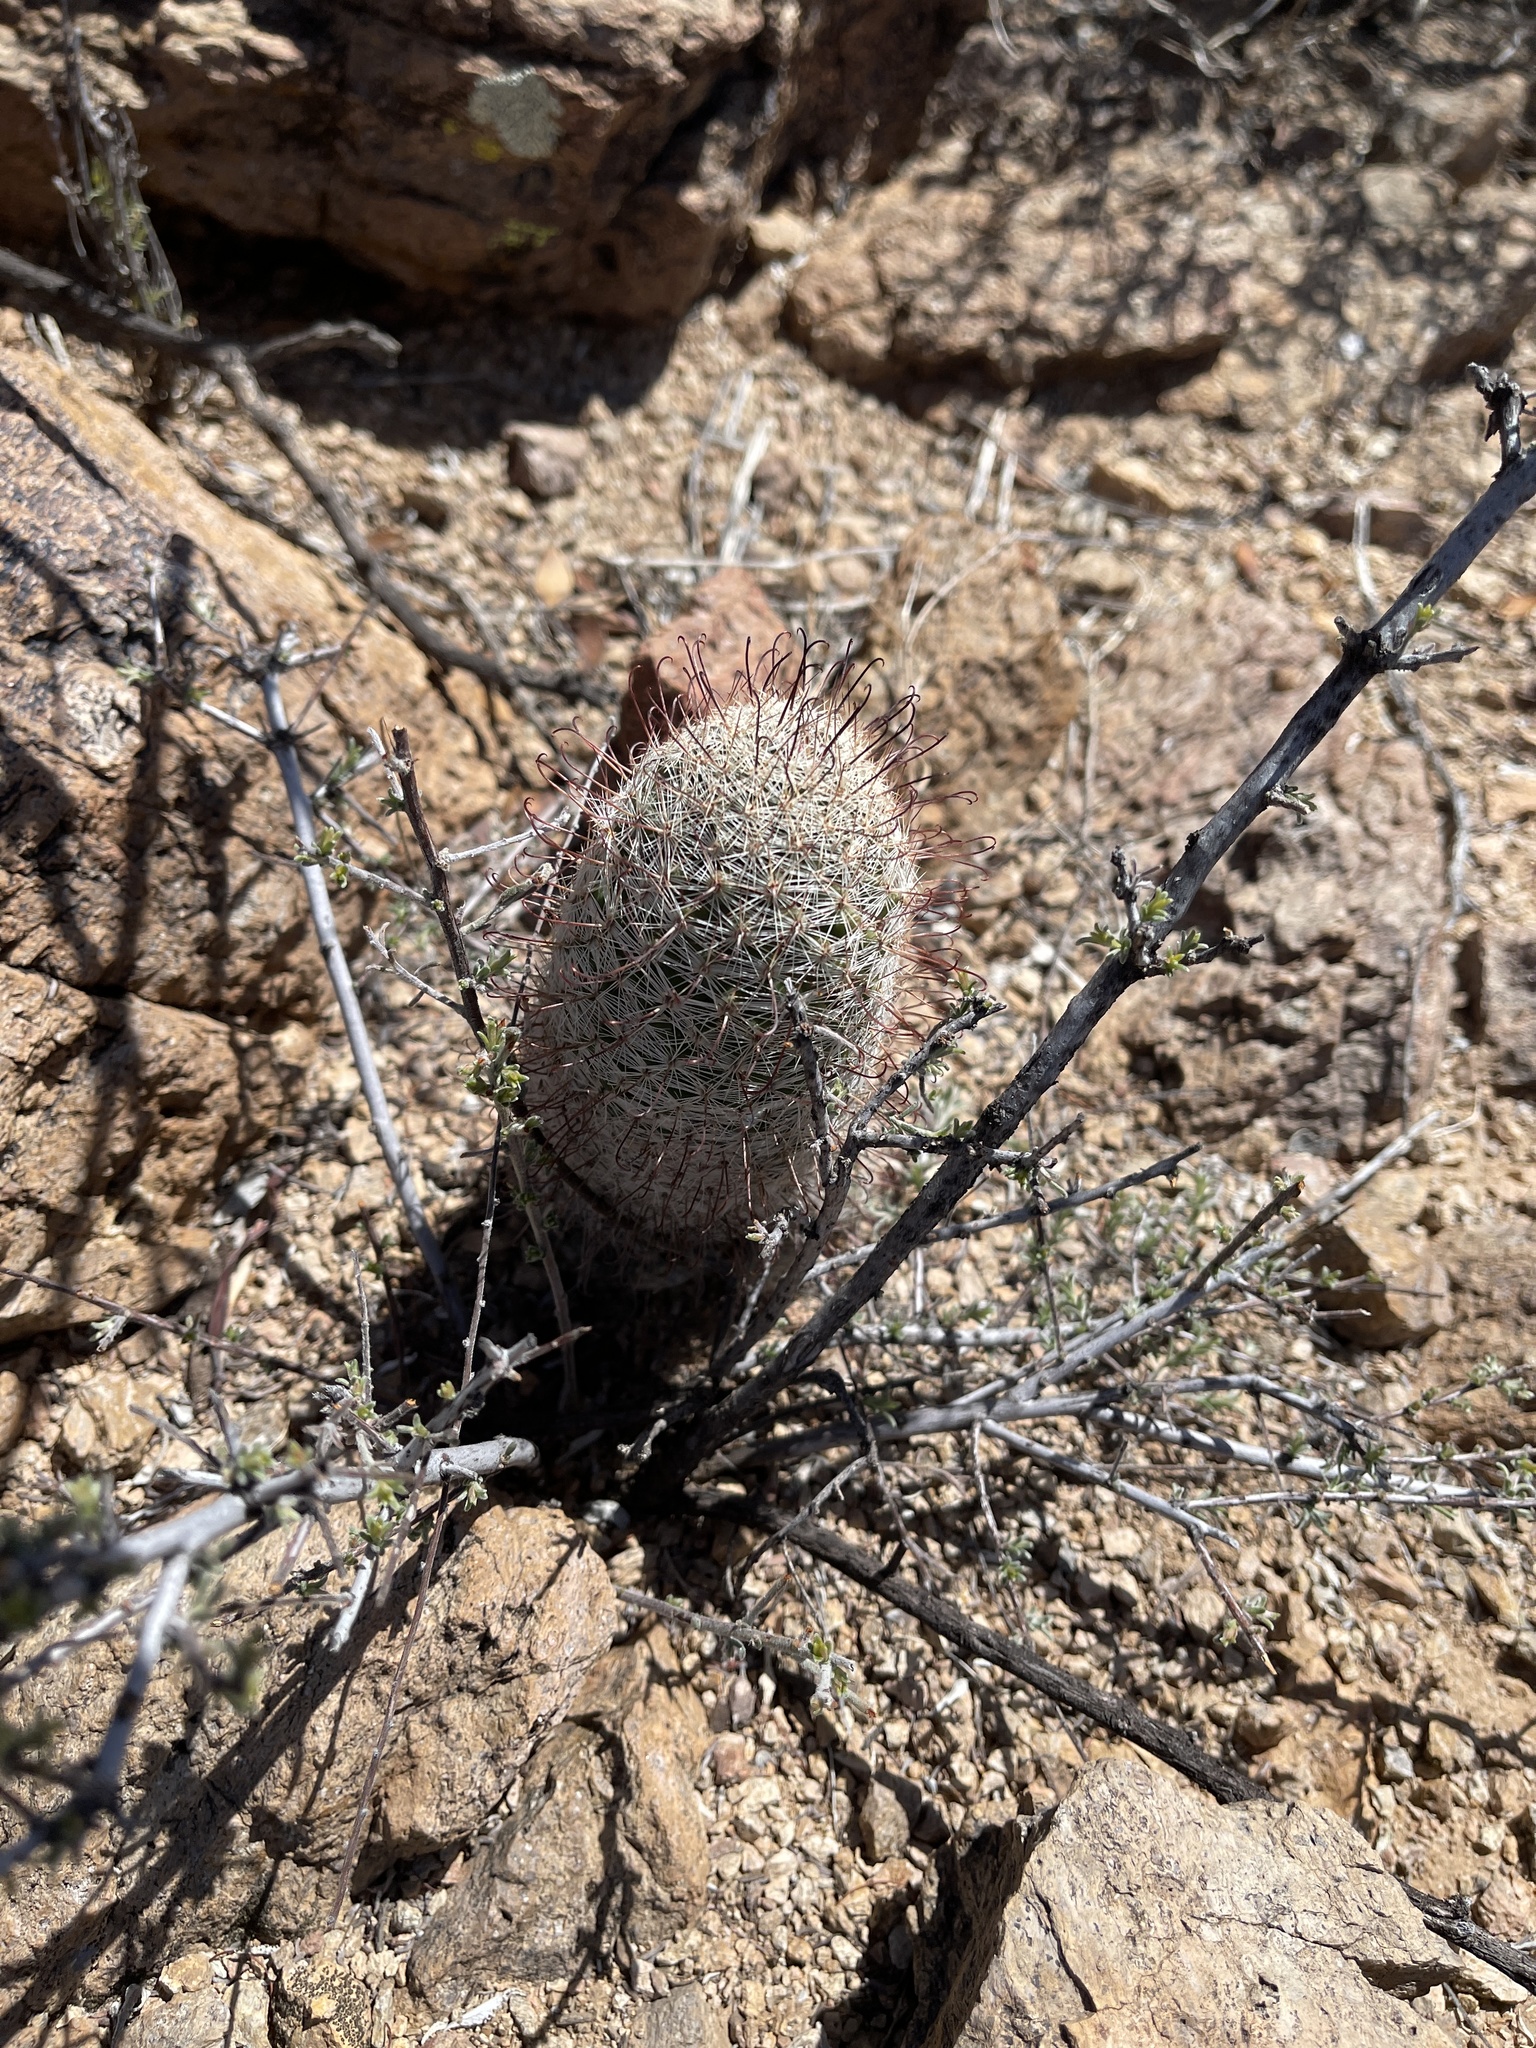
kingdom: Plantae
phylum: Tracheophyta
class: Magnoliopsida
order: Caryophyllales
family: Cactaceae
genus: Cochemiea
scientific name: Cochemiea grahamii
